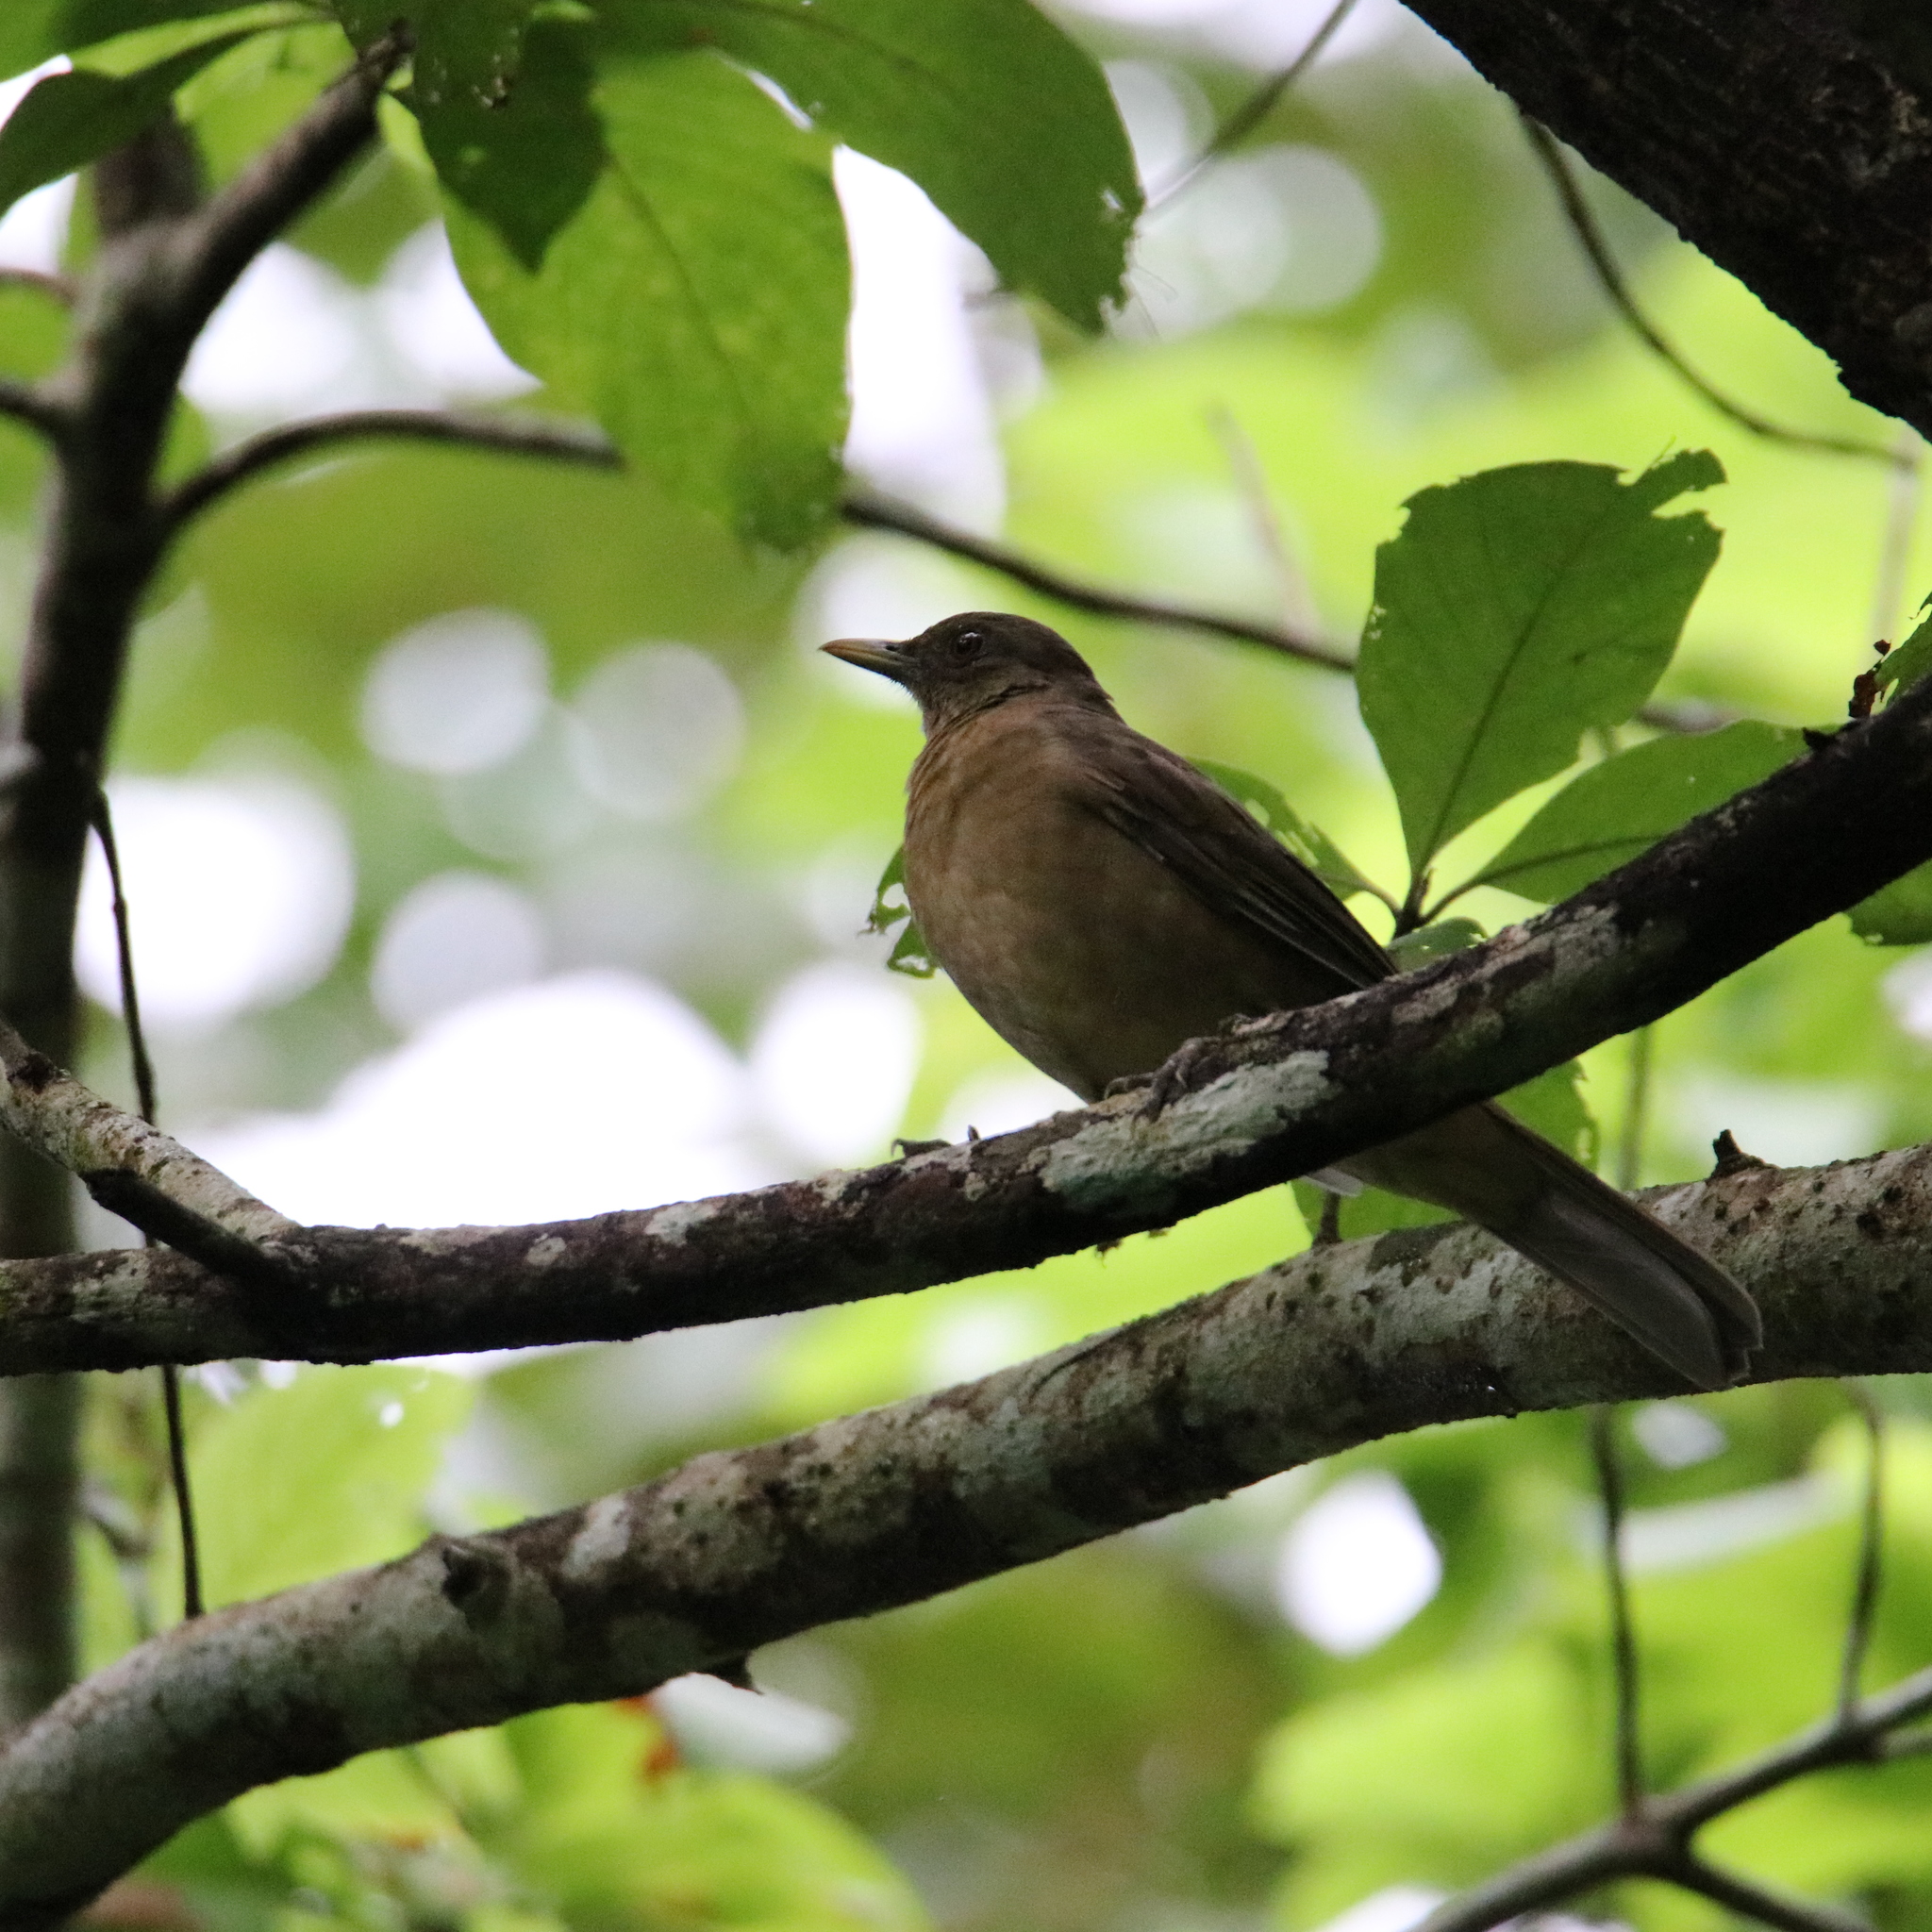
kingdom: Animalia
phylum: Chordata
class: Aves
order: Passeriformes
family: Turdidae
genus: Turdus
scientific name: Turdus grayi
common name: Clay-colored thrush
